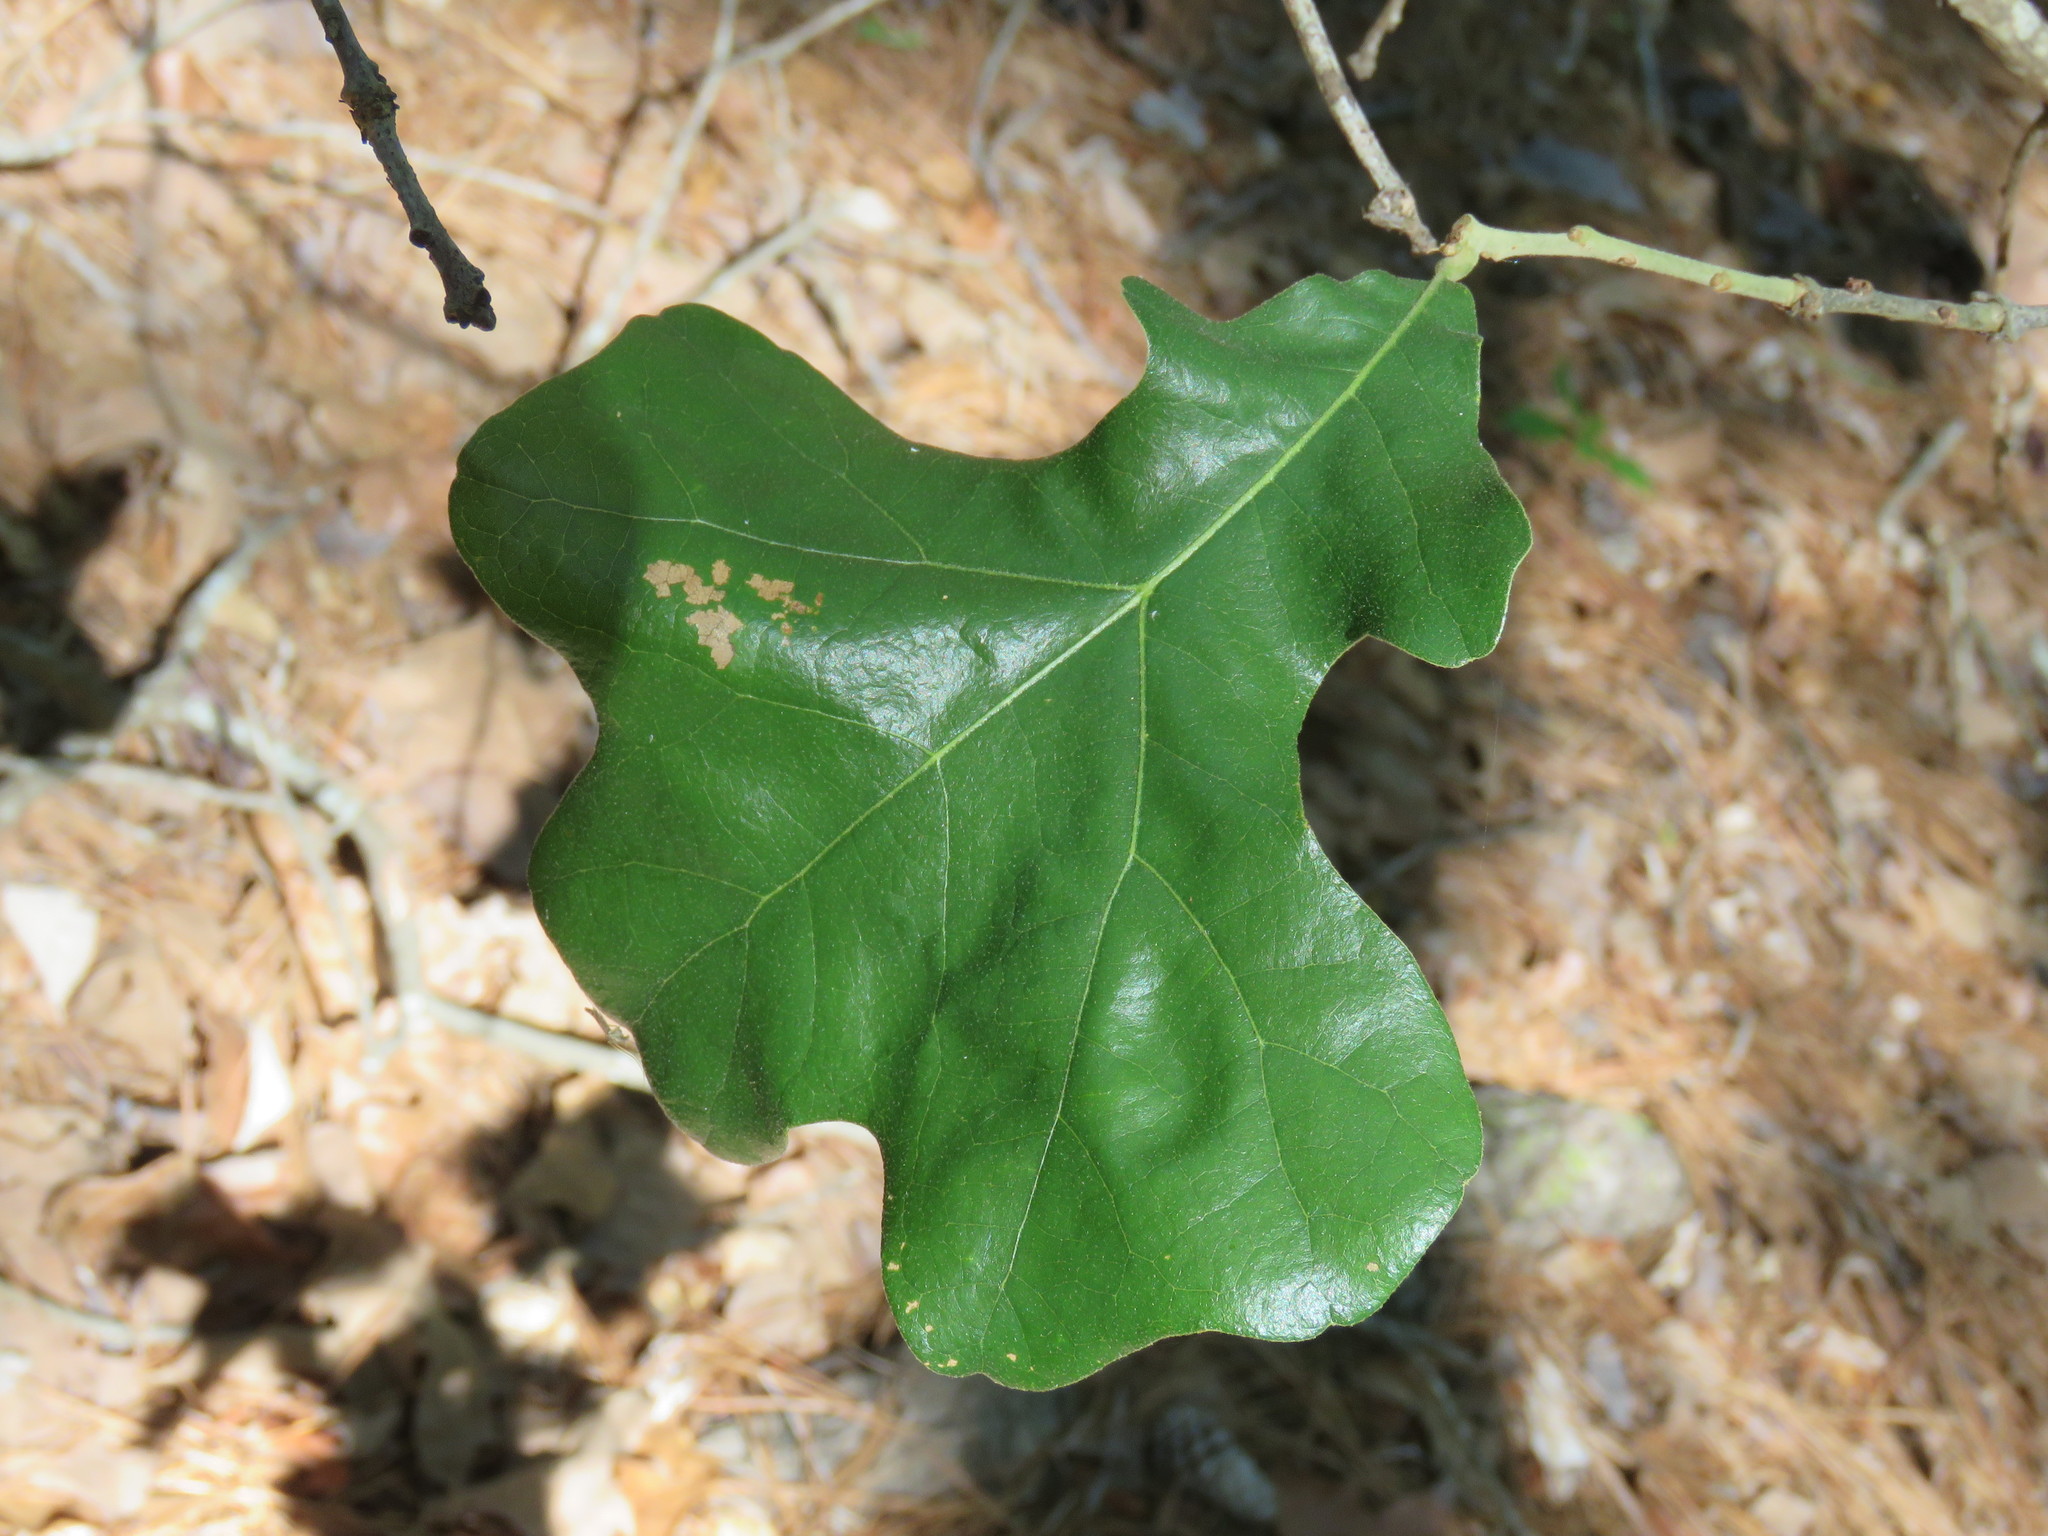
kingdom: Plantae
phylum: Tracheophyta
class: Magnoliopsida
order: Fagales
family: Fagaceae
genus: Quercus
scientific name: Quercus stellata
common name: Post oak
